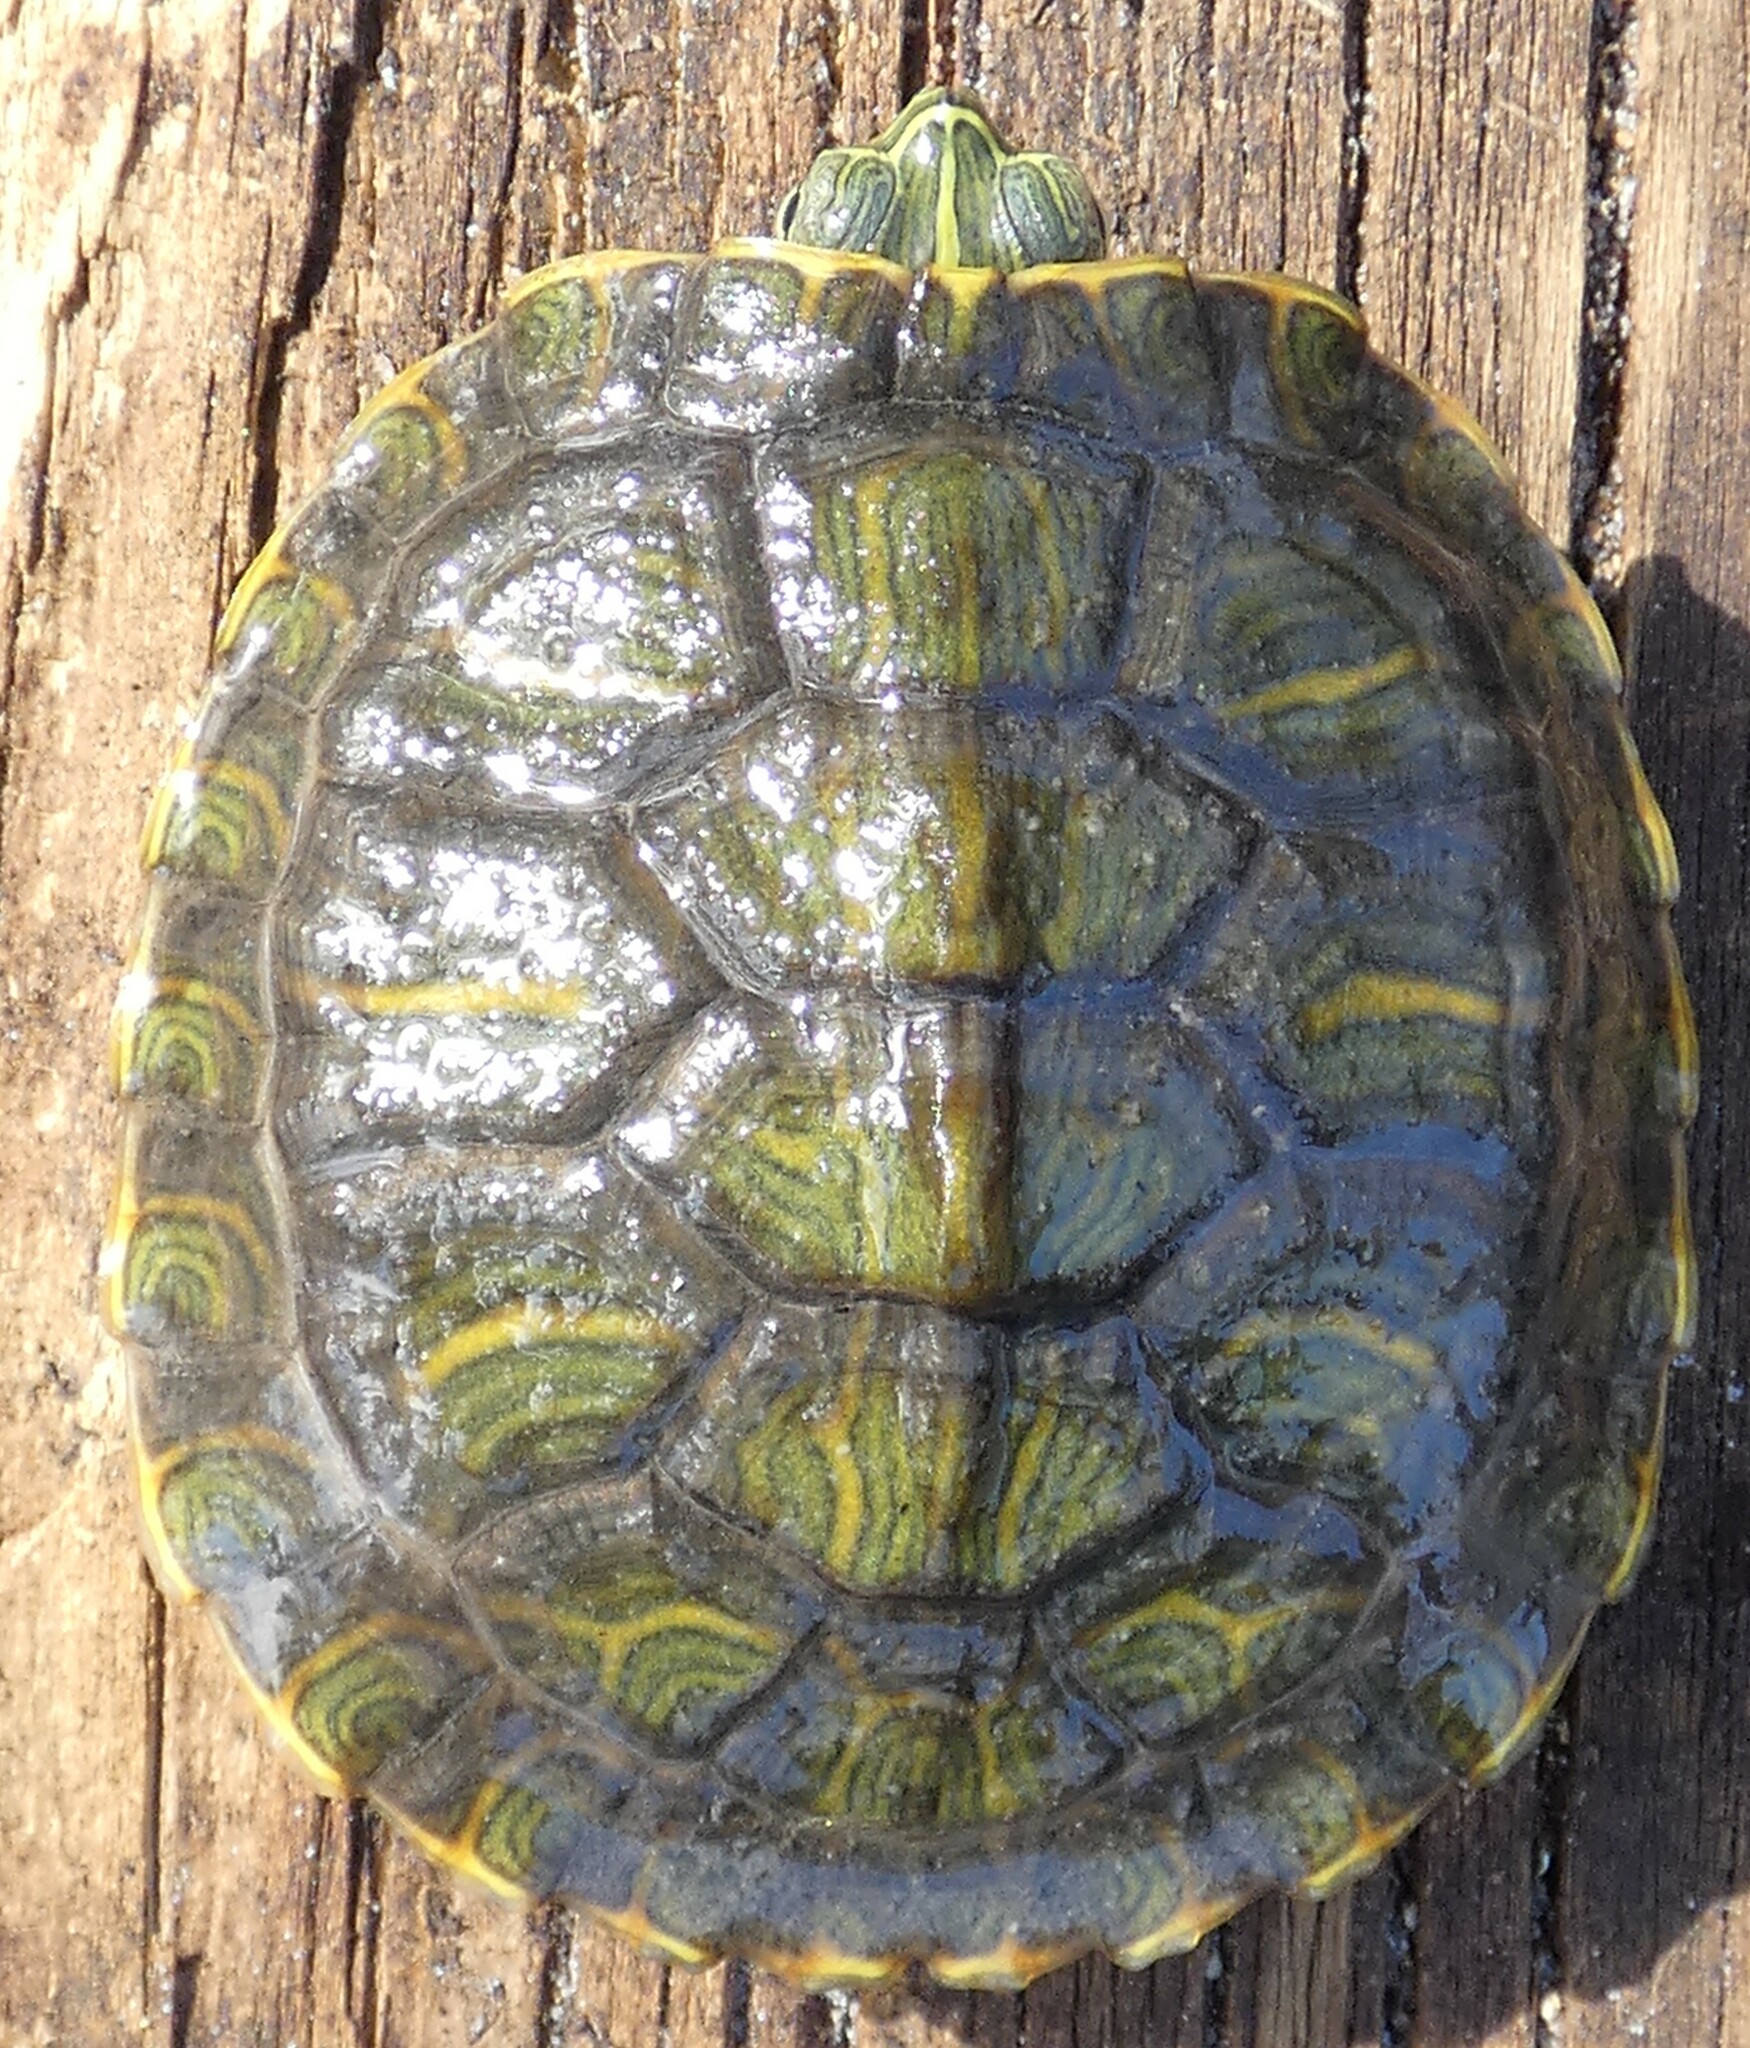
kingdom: Animalia
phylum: Chordata
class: Testudines
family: Emydidae
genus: Trachemys
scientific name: Trachemys scripta
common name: Slider
